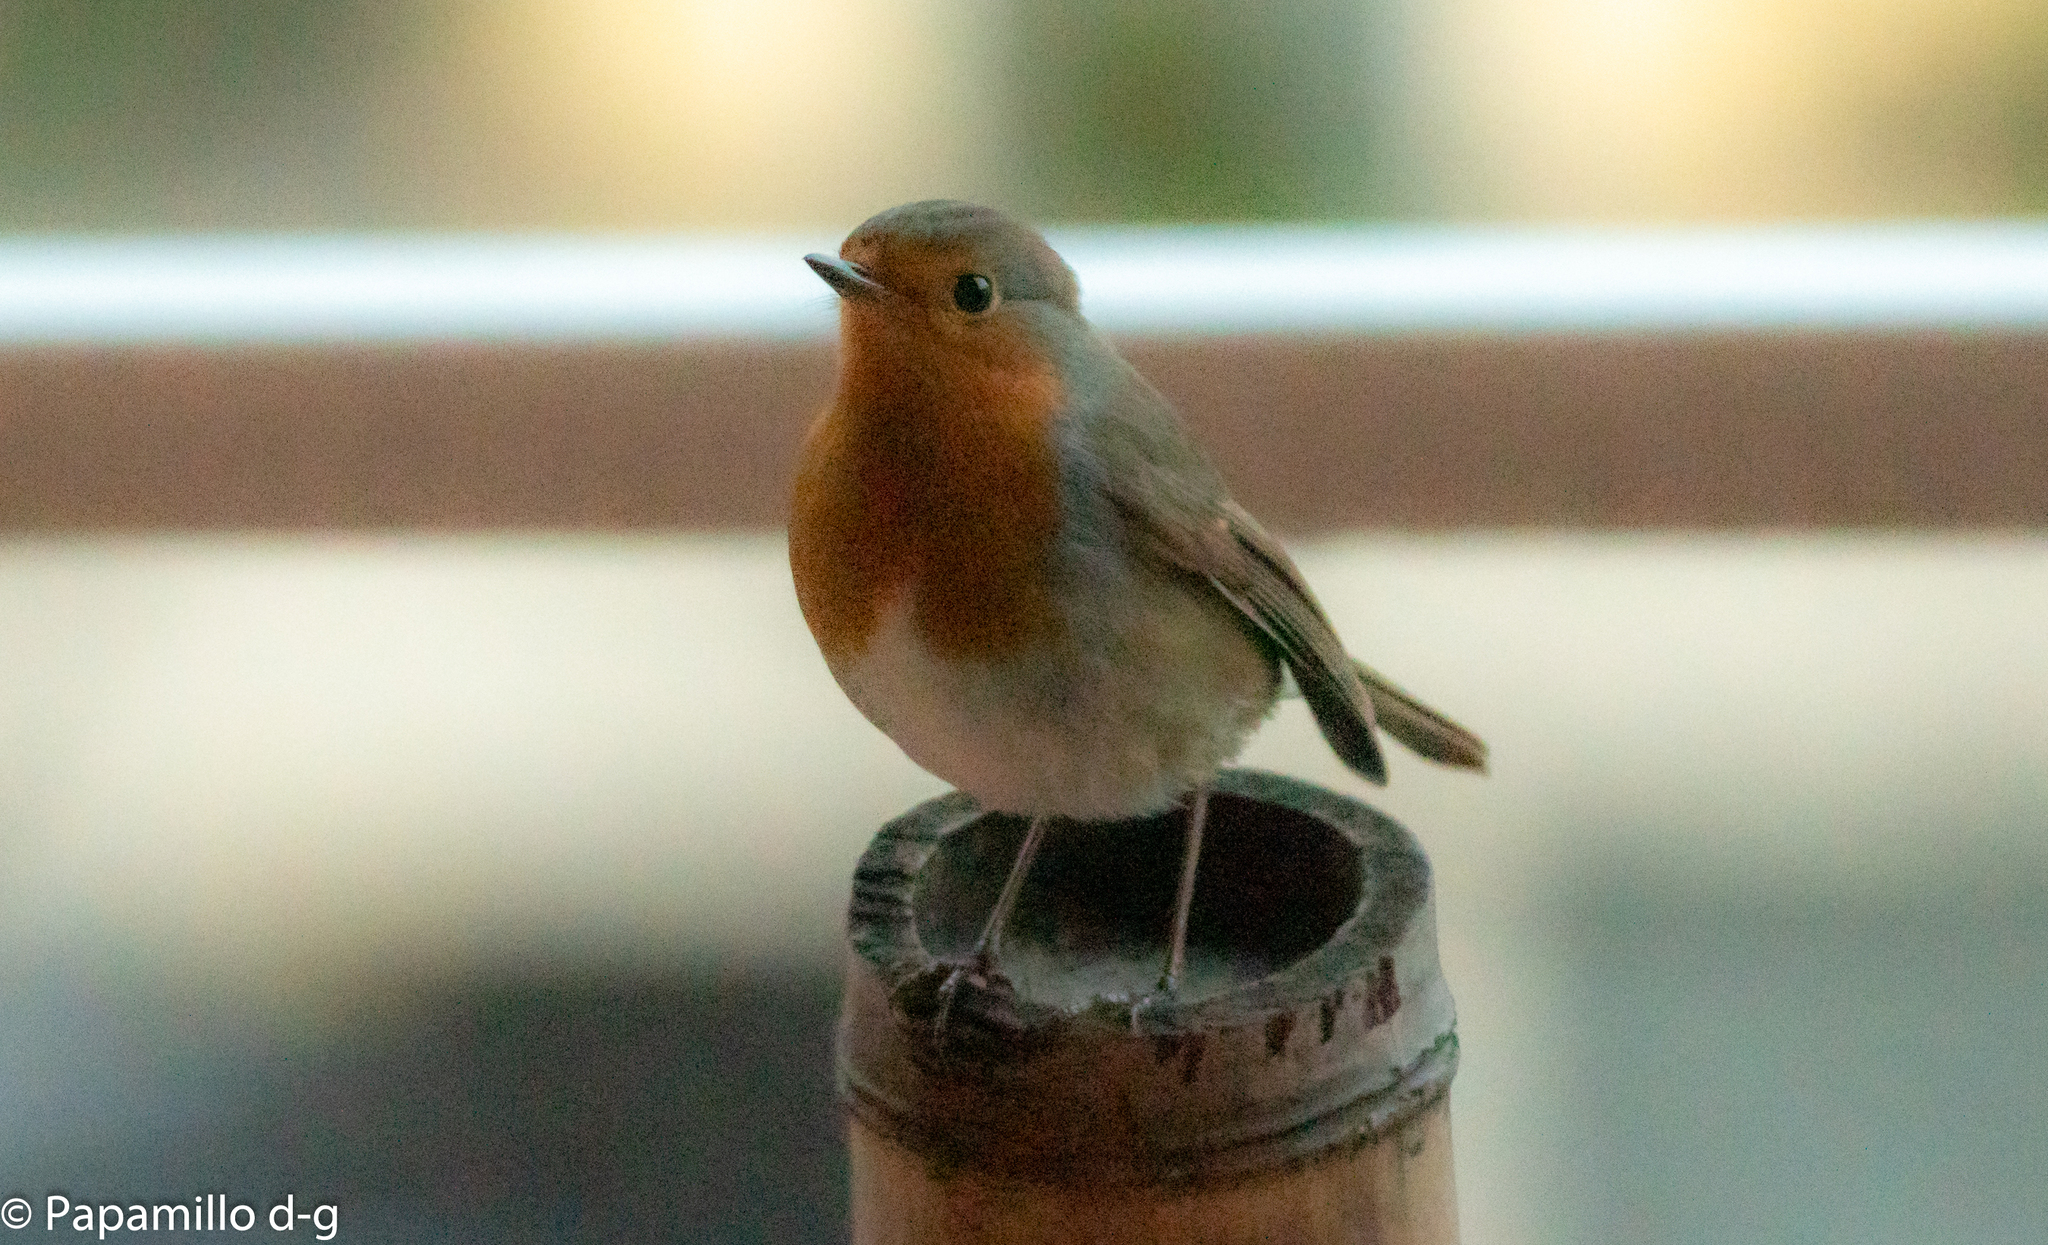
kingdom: Animalia
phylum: Chordata
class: Aves
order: Passeriformes
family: Muscicapidae
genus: Erithacus
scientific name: Erithacus rubecula
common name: European robin
